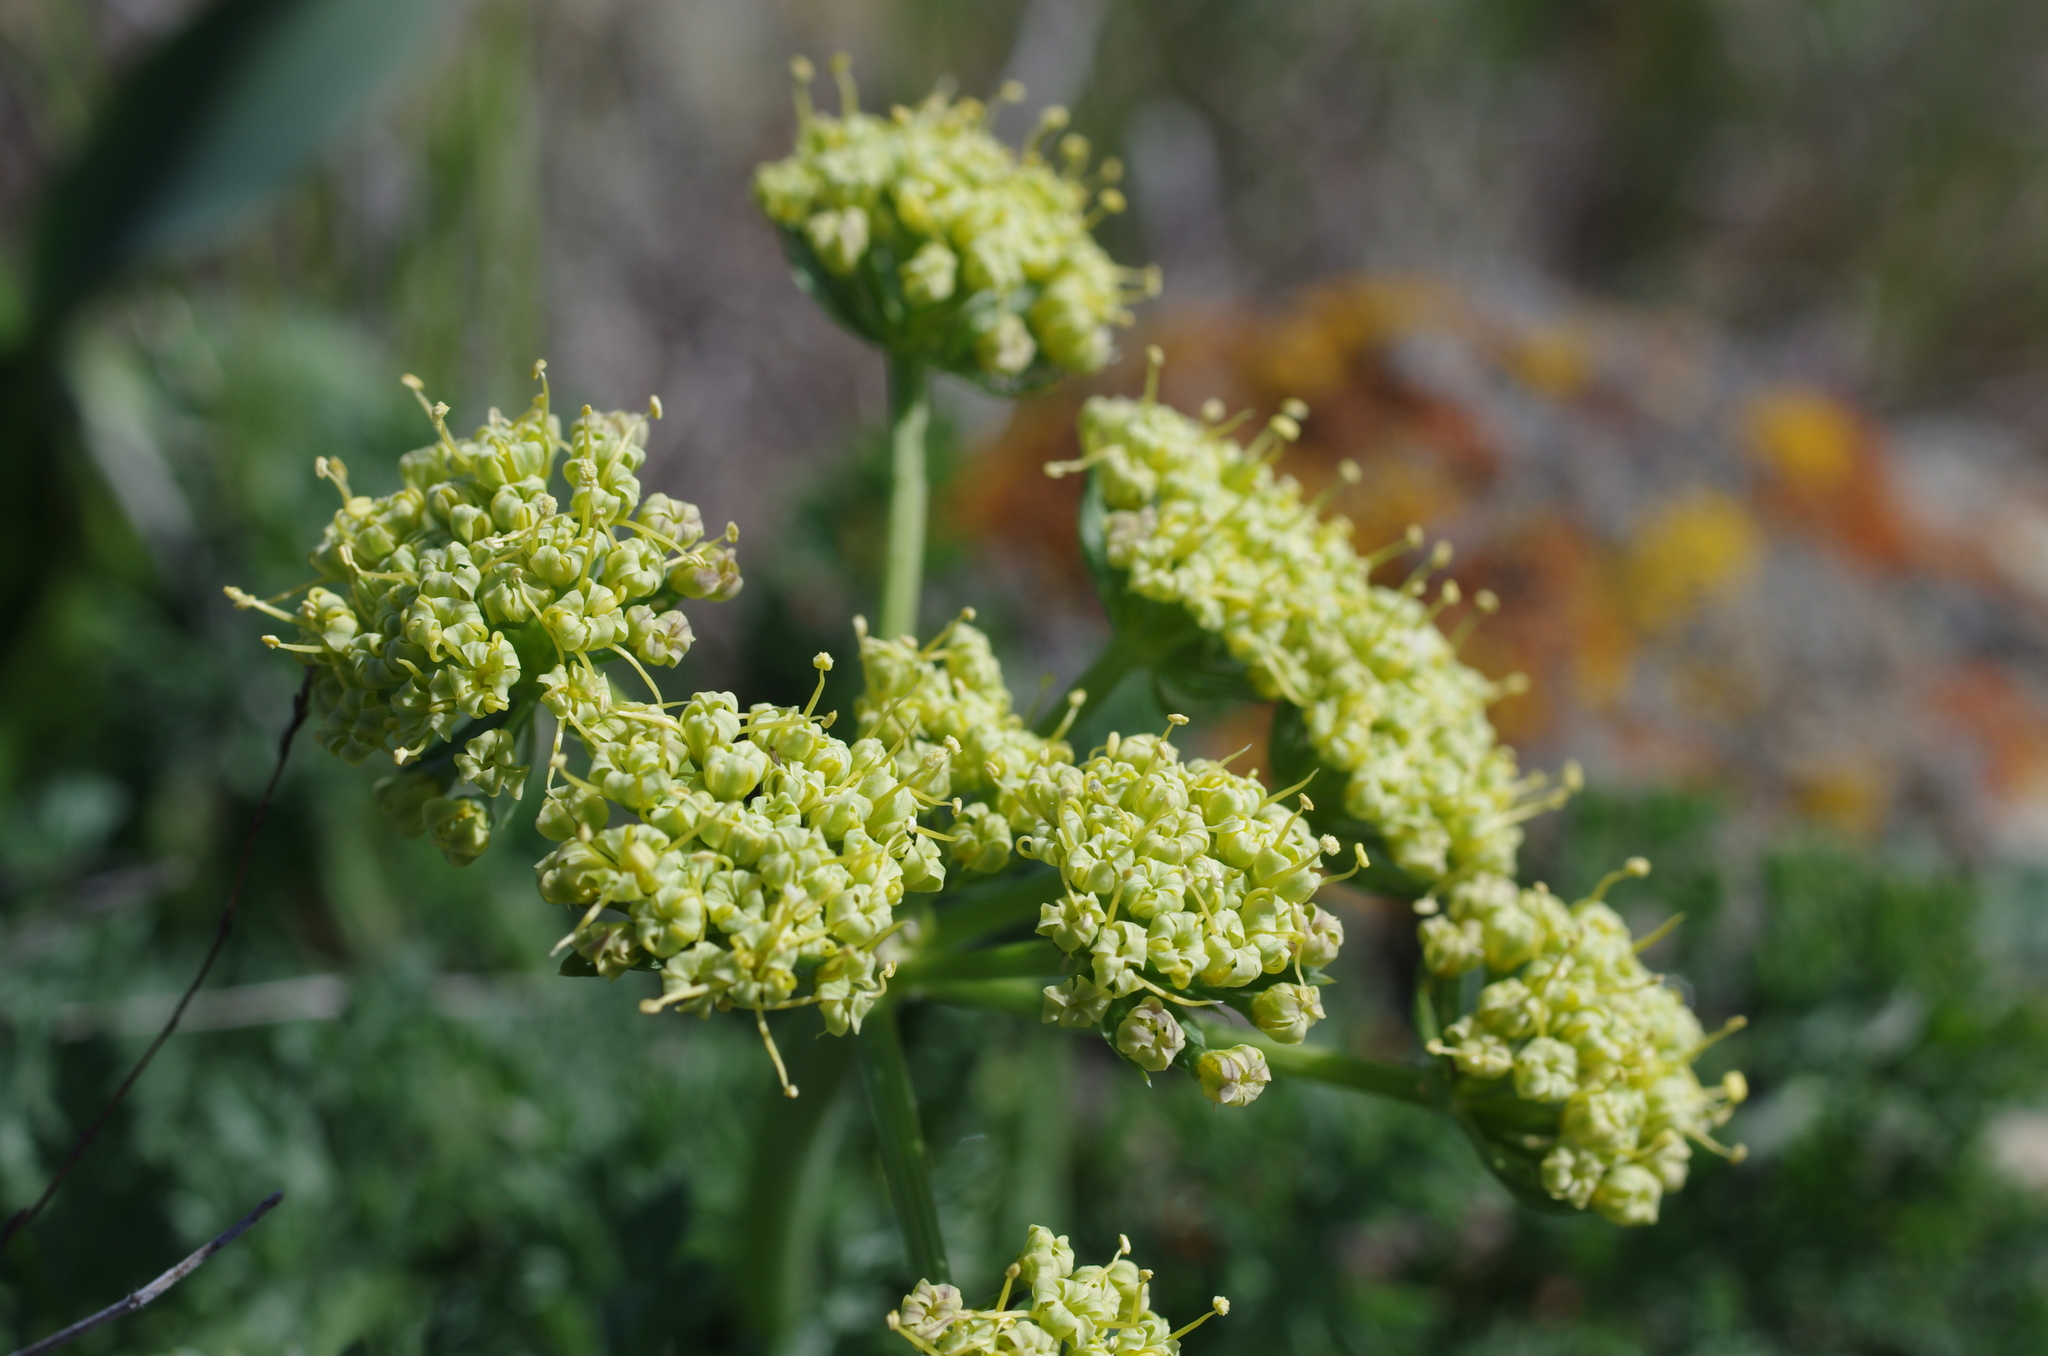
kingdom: Plantae
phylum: Tracheophyta
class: Magnoliopsida
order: Apiales
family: Apiaceae
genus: Lomatium
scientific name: Lomatium macrocarpum
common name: Big-seed biscuitroot
